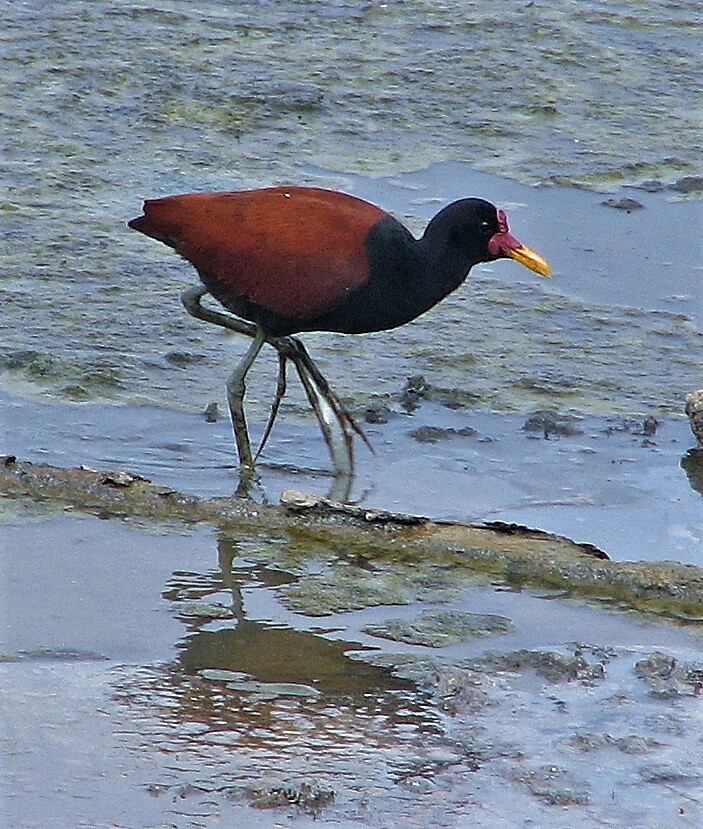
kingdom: Animalia
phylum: Chordata
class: Aves
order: Charadriiformes
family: Jacanidae
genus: Jacana
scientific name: Jacana jacana
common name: Wattled jacana
